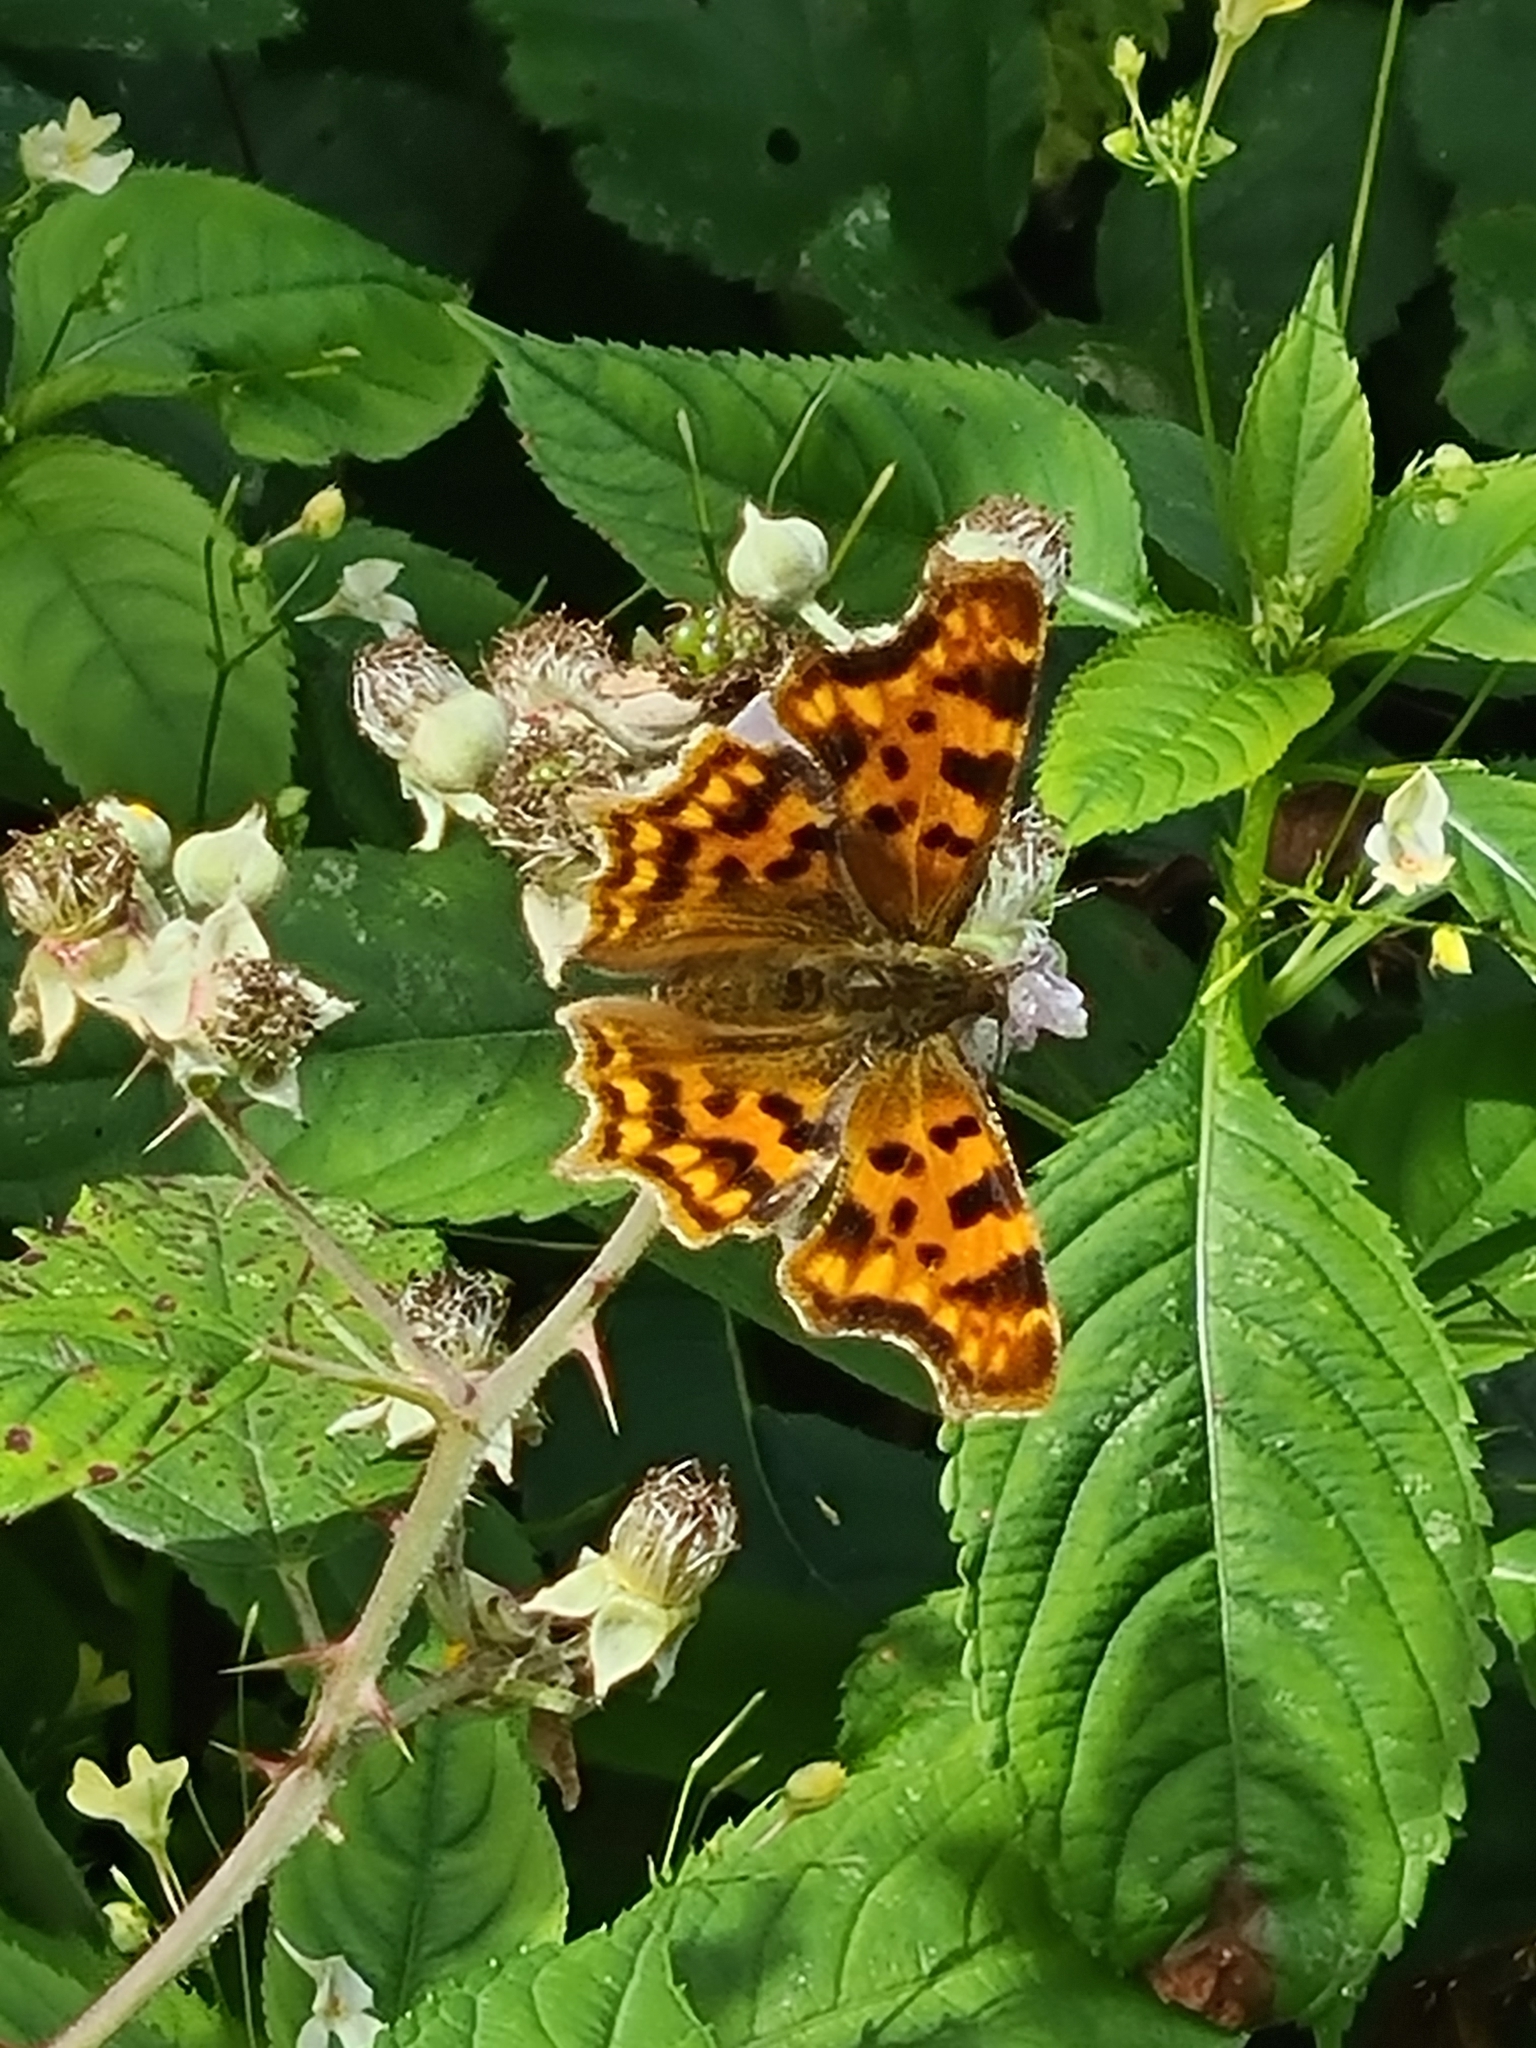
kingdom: Animalia
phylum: Arthropoda
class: Insecta
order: Lepidoptera
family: Nymphalidae
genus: Polygonia
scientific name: Polygonia c-album
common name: Comma
